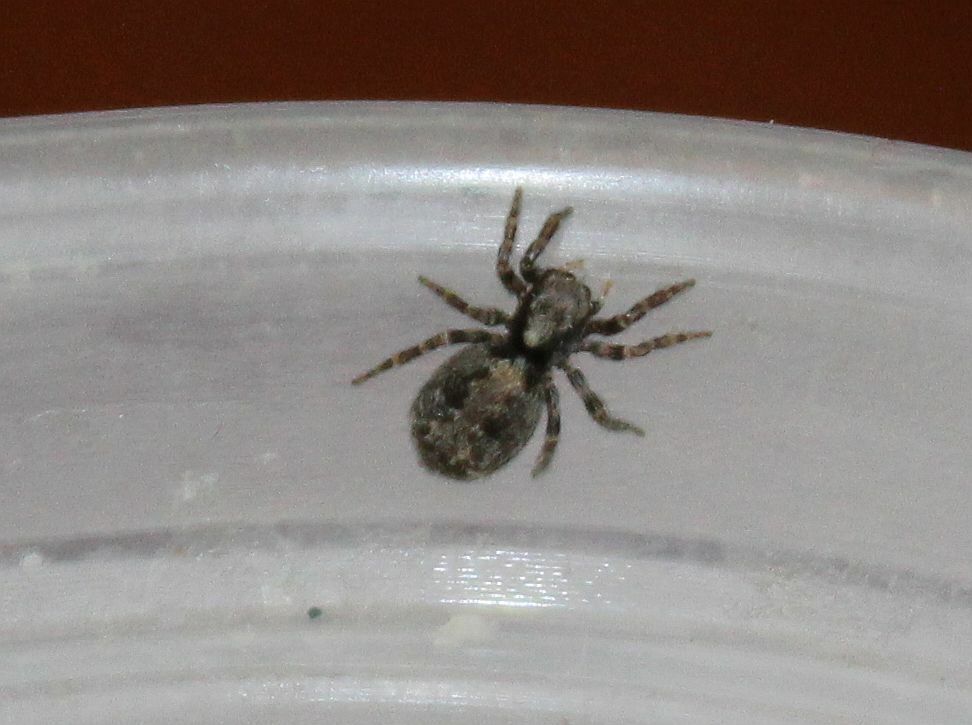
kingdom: Animalia
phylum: Arthropoda
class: Arachnida
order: Araneae
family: Salticidae
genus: Pseudeuophrys
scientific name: Pseudeuophrys lanigera
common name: Jumping spider
